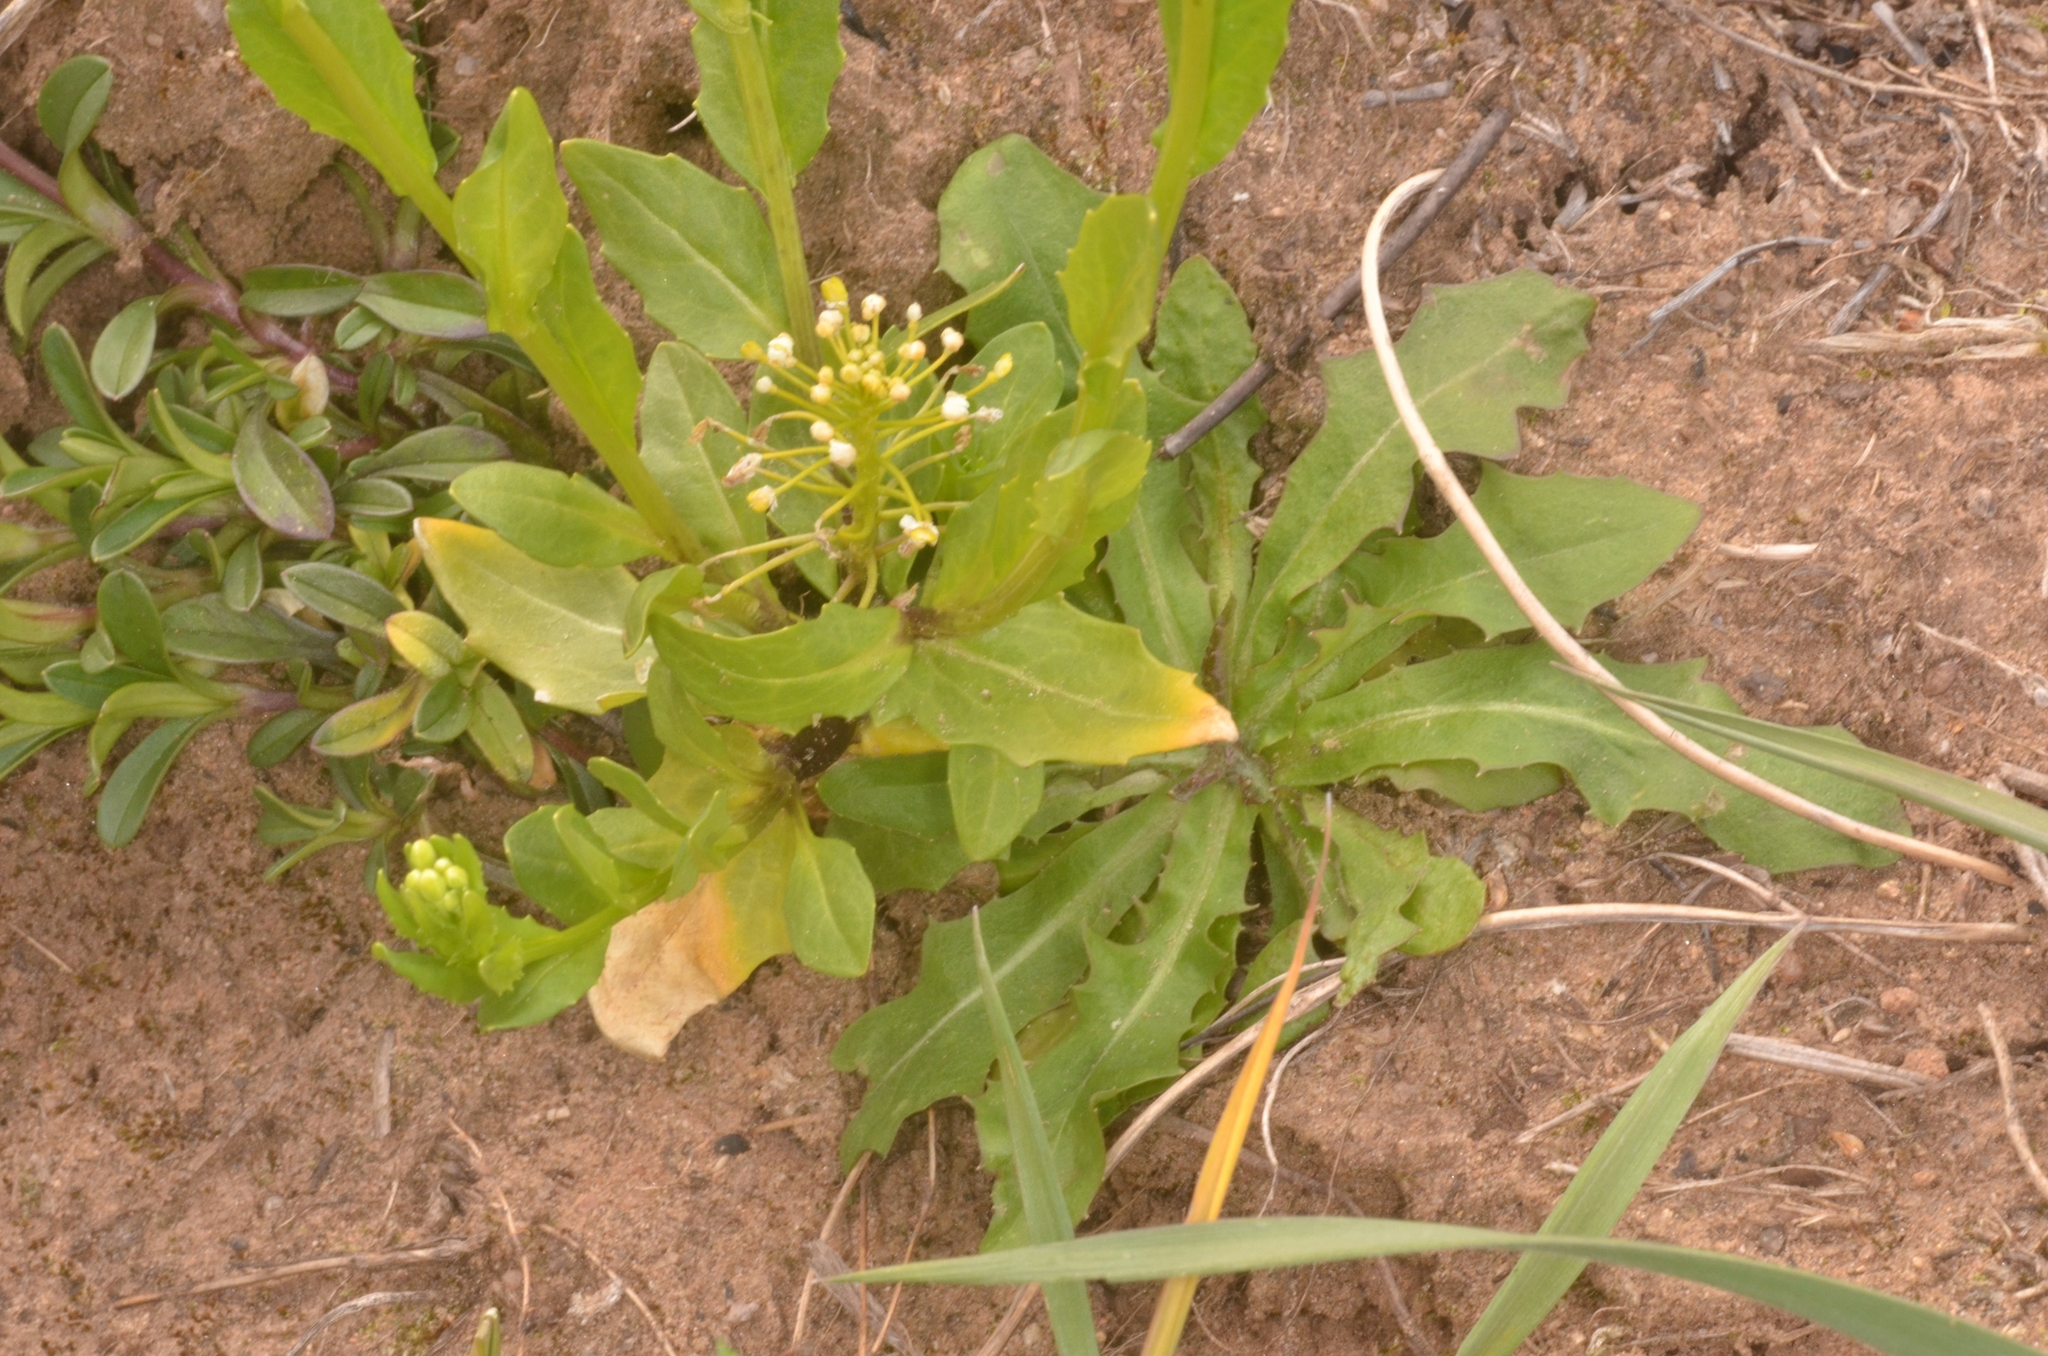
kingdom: Plantae
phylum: Tracheophyta
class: Magnoliopsida
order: Brassicales
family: Brassicaceae
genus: Thlaspi
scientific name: Thlaspi arvense
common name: Field pennycress
